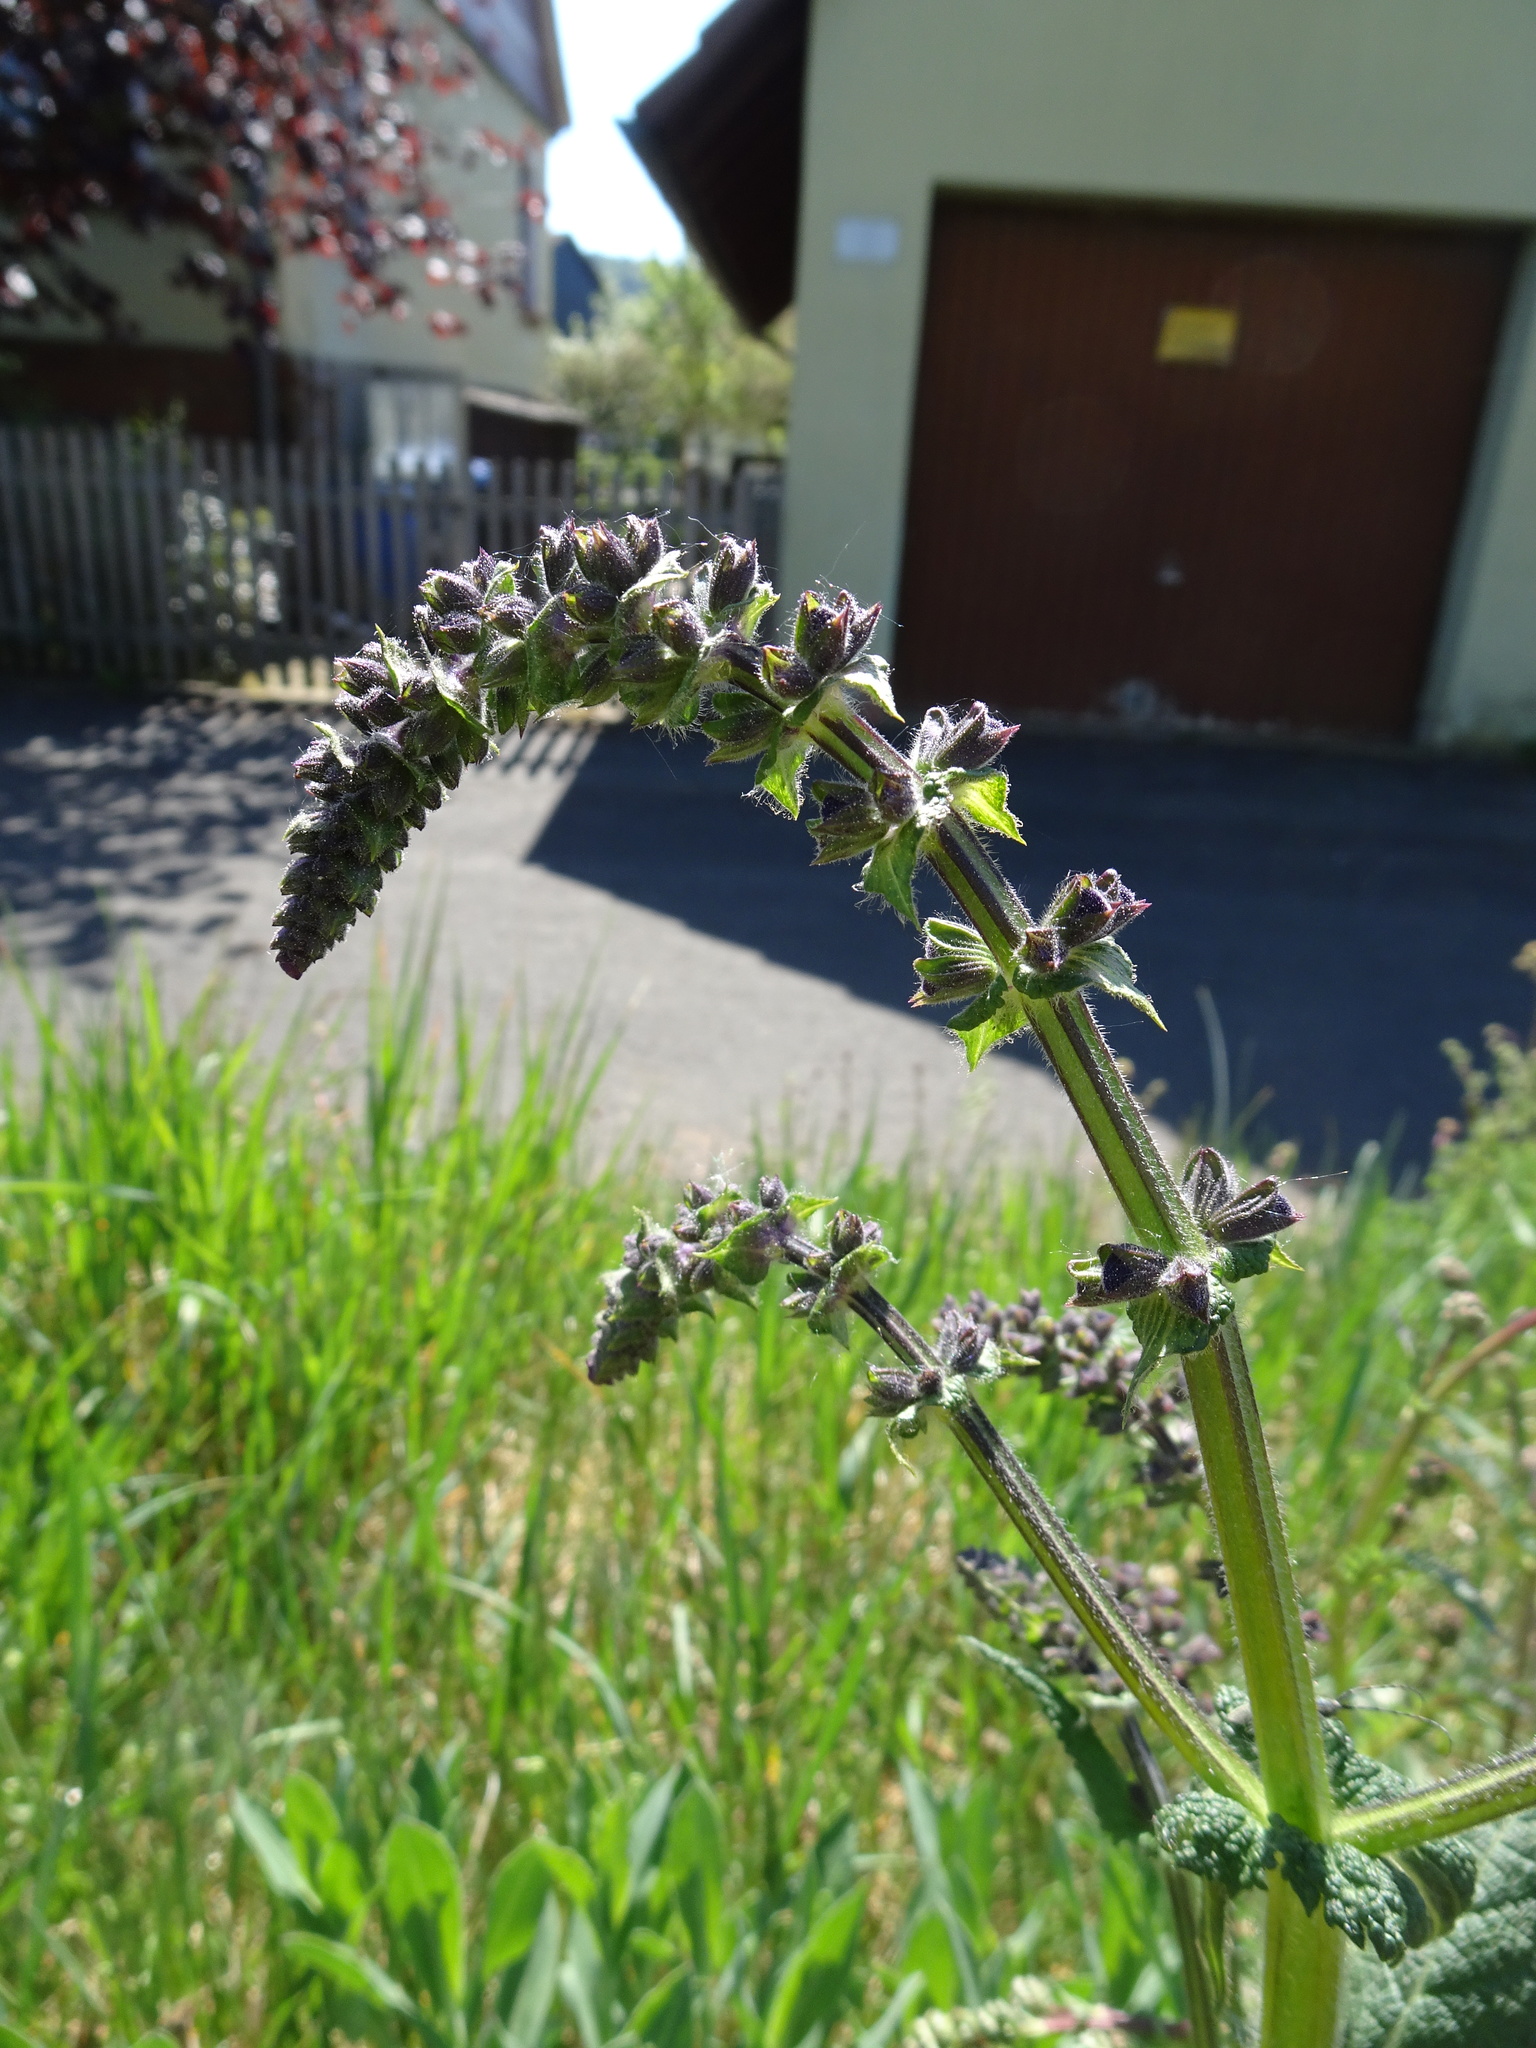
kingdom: Plantae
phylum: Tracheophyta
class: Magnoliopsida
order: Lamiales
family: Lamiaceae
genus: Salvia
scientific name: Salvia pratensis
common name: Meadow sage
